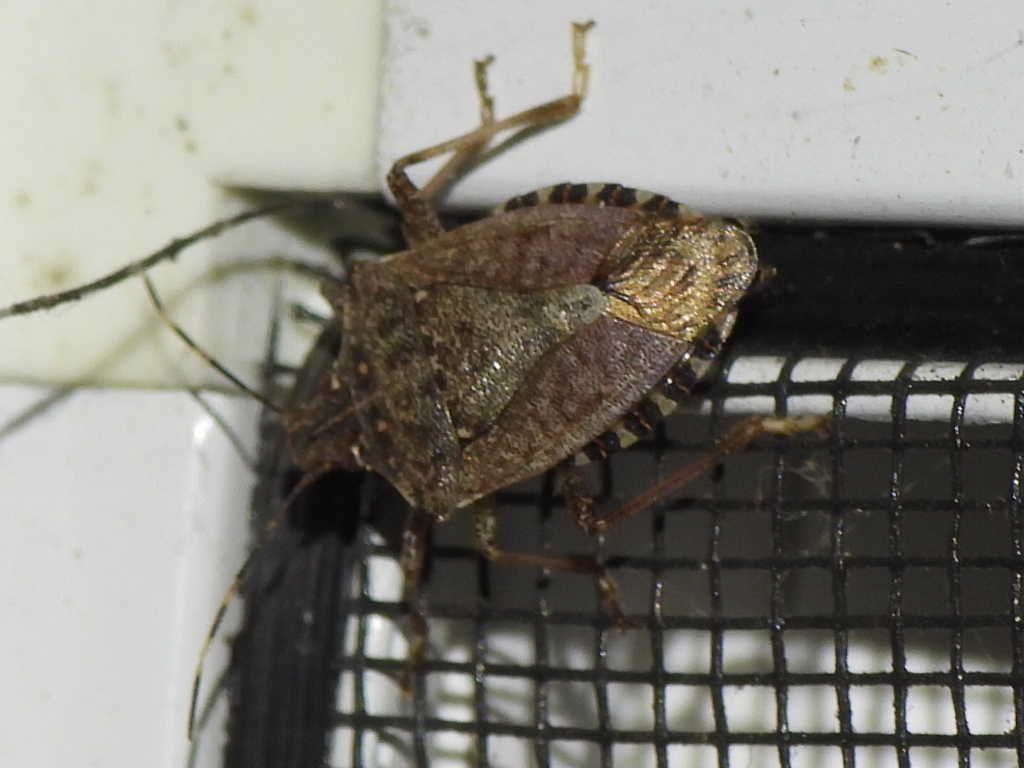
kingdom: Animalia
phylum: Arthropoda
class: Insecta
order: Hemiptera
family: Pentatomidae
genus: Halyomorpha
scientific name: Halyomorpha halys
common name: Brown marmorated stink bug
